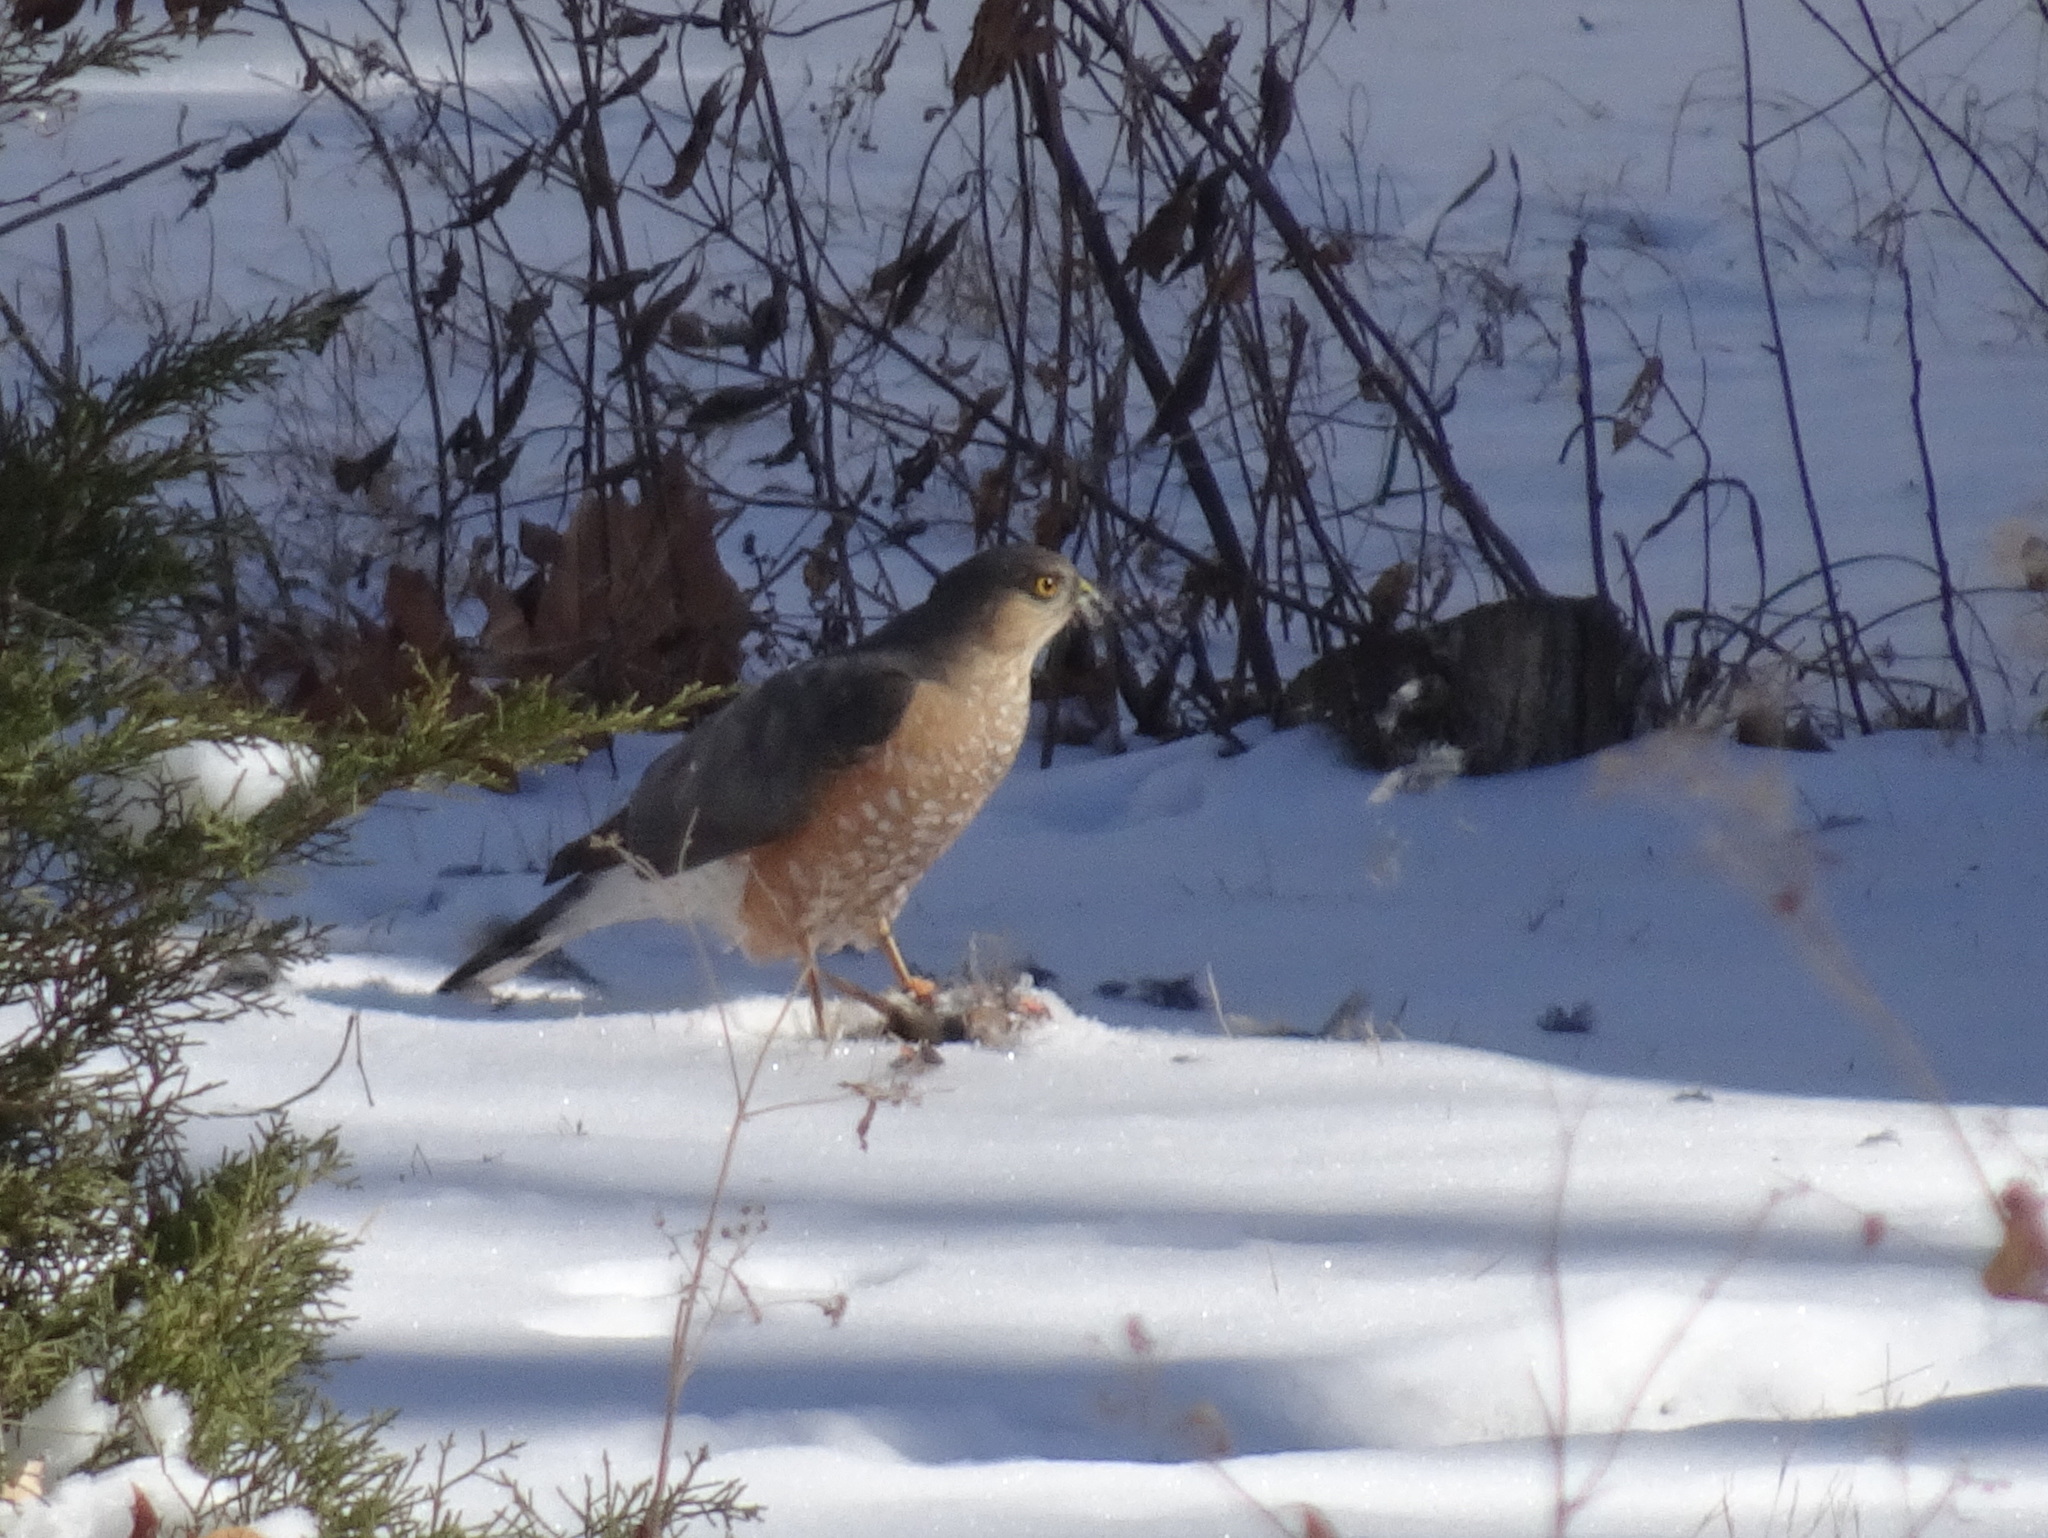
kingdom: Animalia
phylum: Chordata
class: Aves
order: Accipitriformes
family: Accipitridae
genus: Accipiter
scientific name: Accipiter striatus
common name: Sharp-shinned hawk
